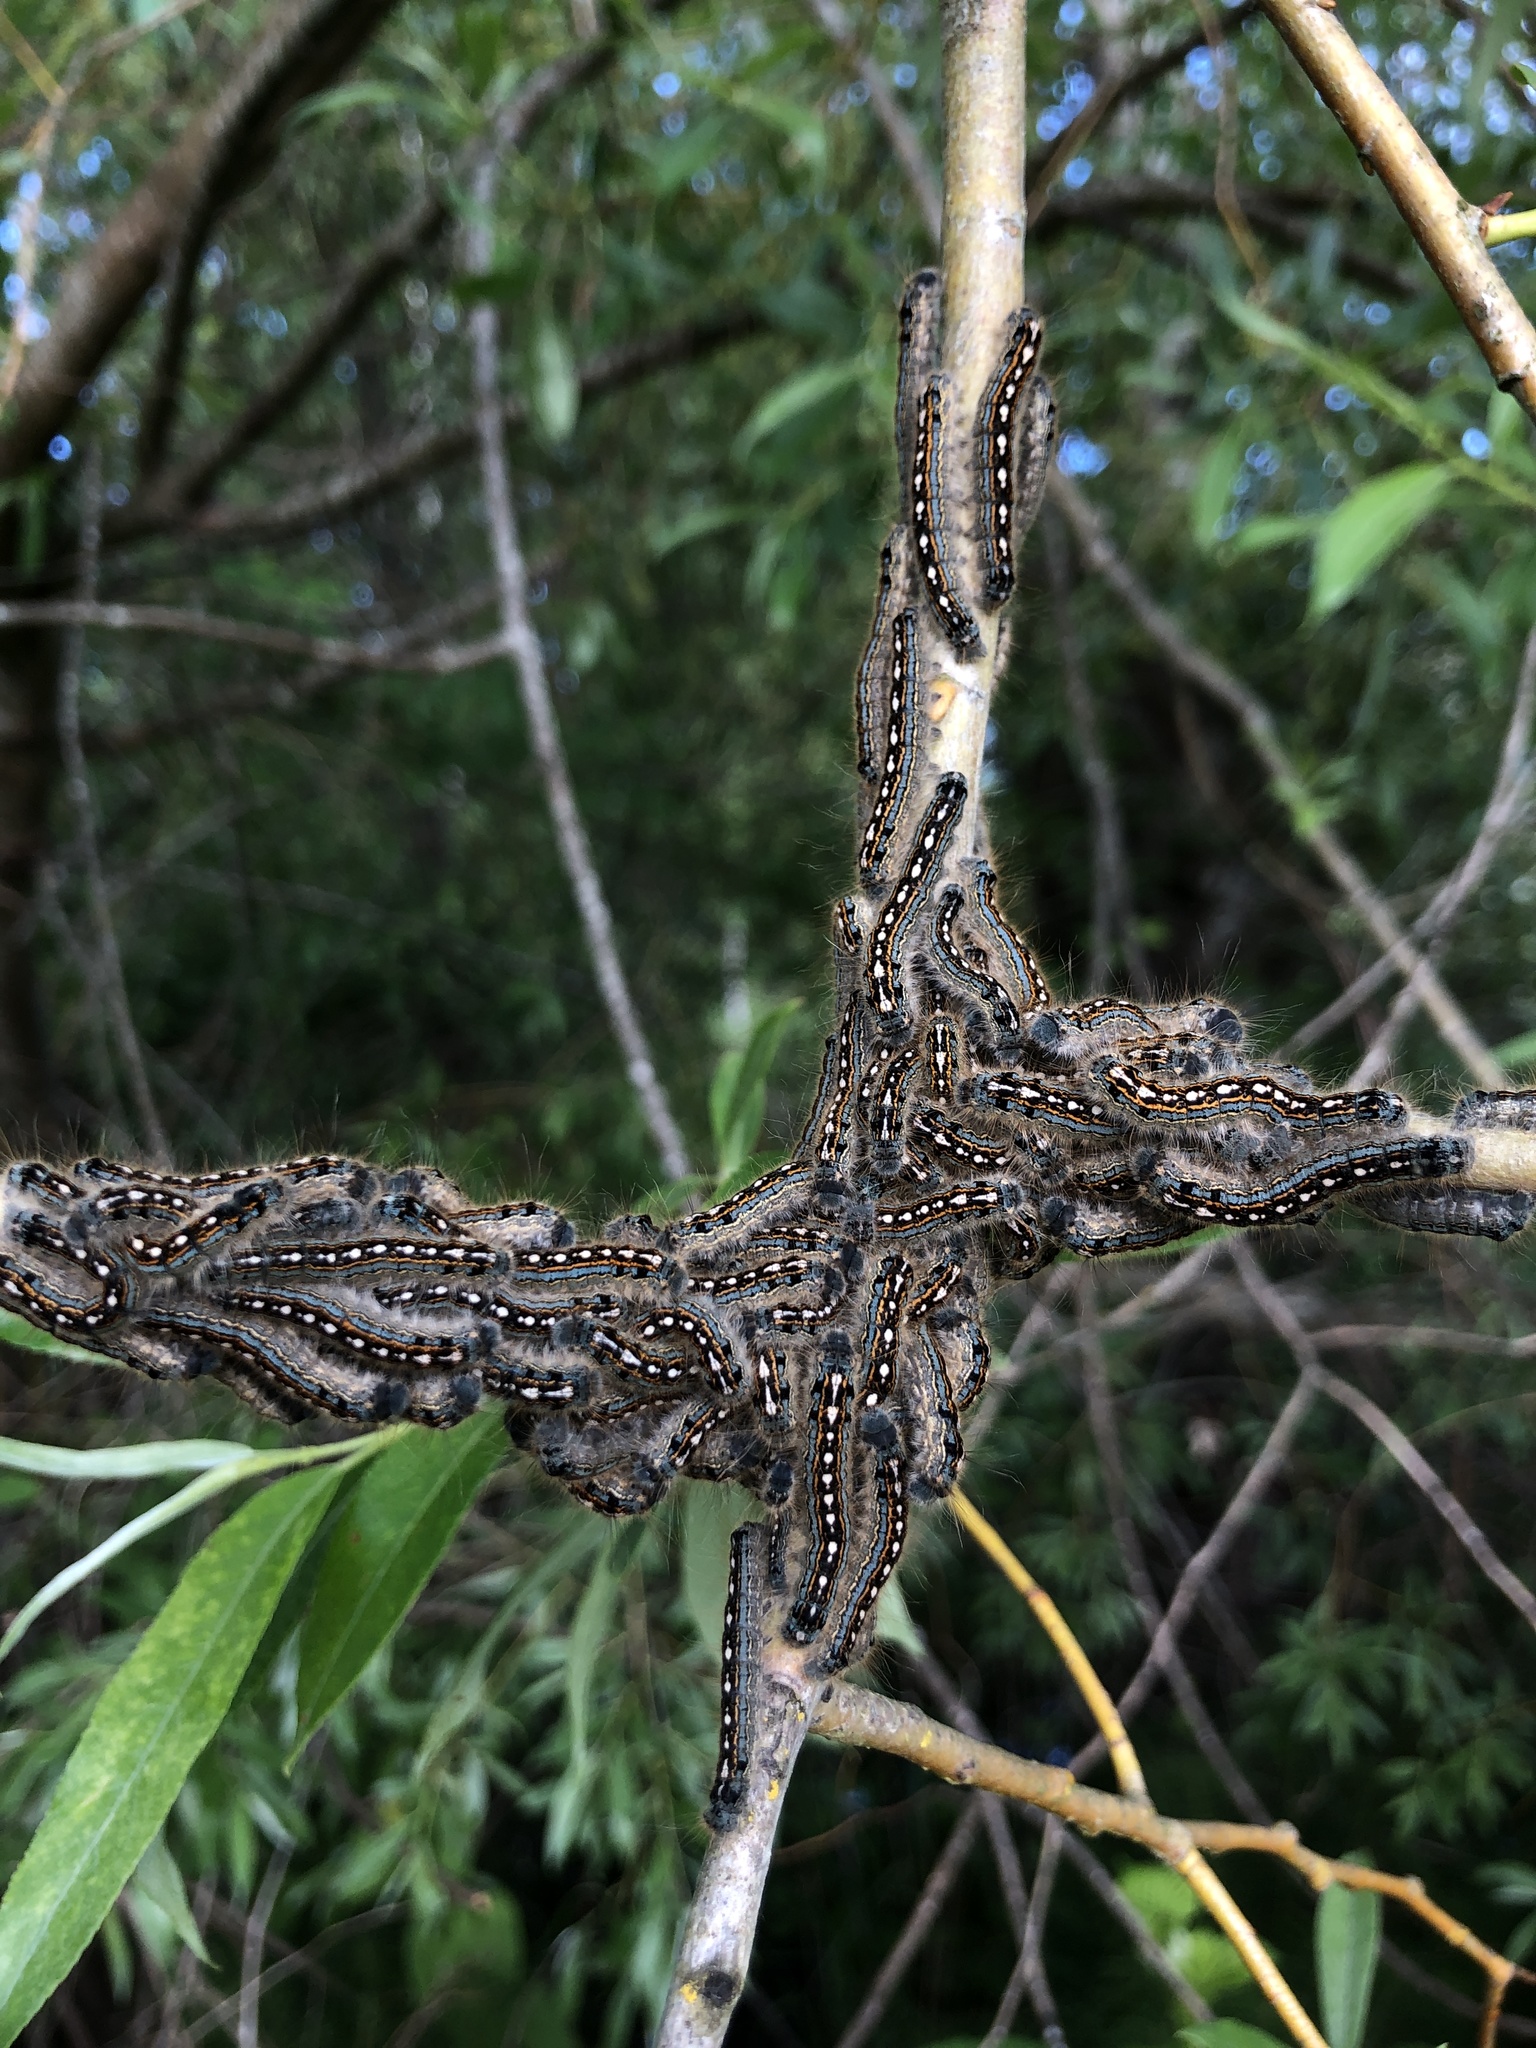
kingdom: Animalia
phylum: Arthropoda
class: Insecta
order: Lepidoptera
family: Lasiocampidae
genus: Malacosoma
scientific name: Malacosoma disstria
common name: Forest tent caterpillar
